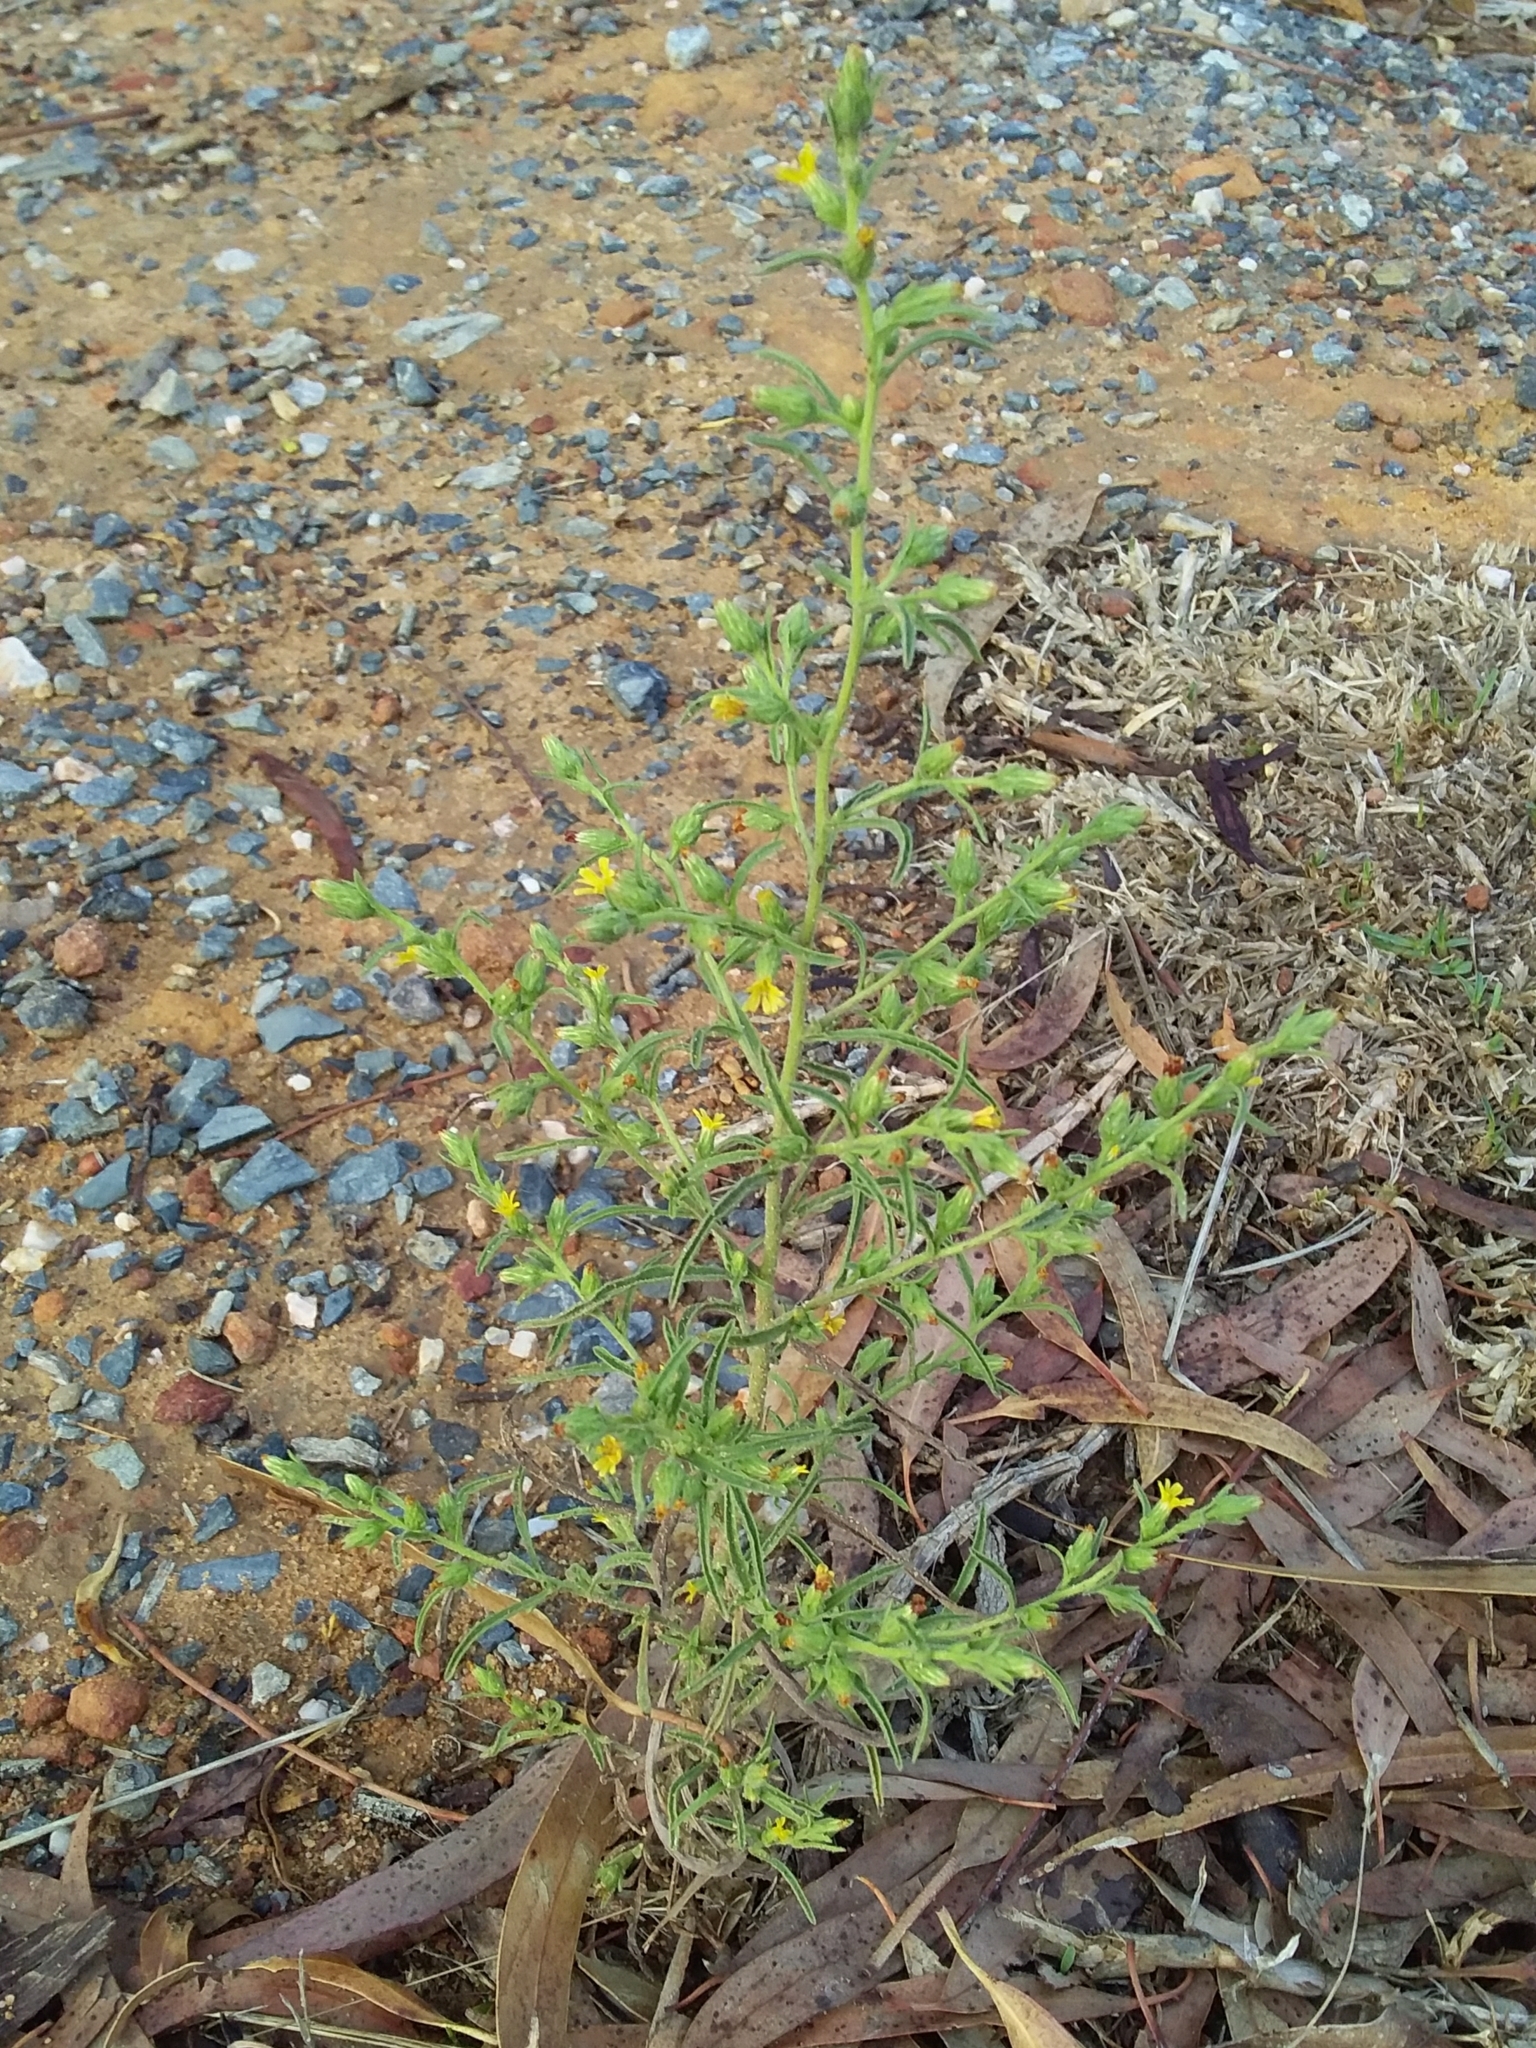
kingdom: Plantae
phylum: Tracheophyta
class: Magnoliopsida
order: Asterales
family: Asteraceae
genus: Dittrichia
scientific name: Dittrichia graveolens
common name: Stinking fleabane
